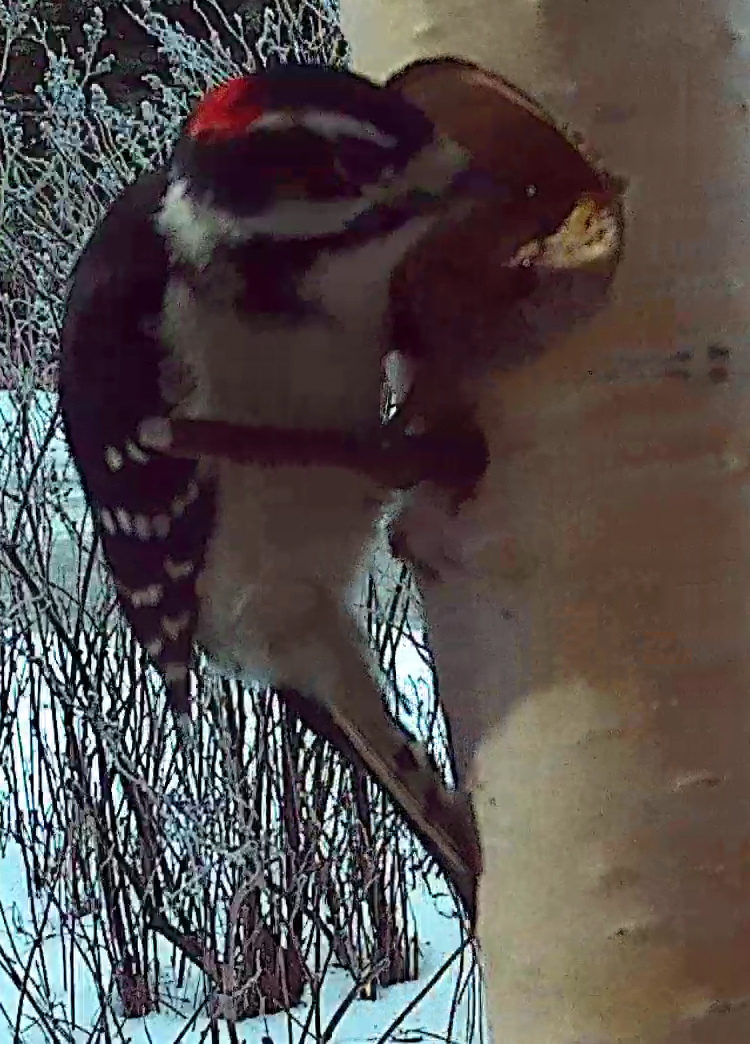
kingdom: Animalia
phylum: Chordata
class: Aves
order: Piciformes
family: Picidae
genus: Dryobates
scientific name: Dryobates pubescens
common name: Downy woodpecker
